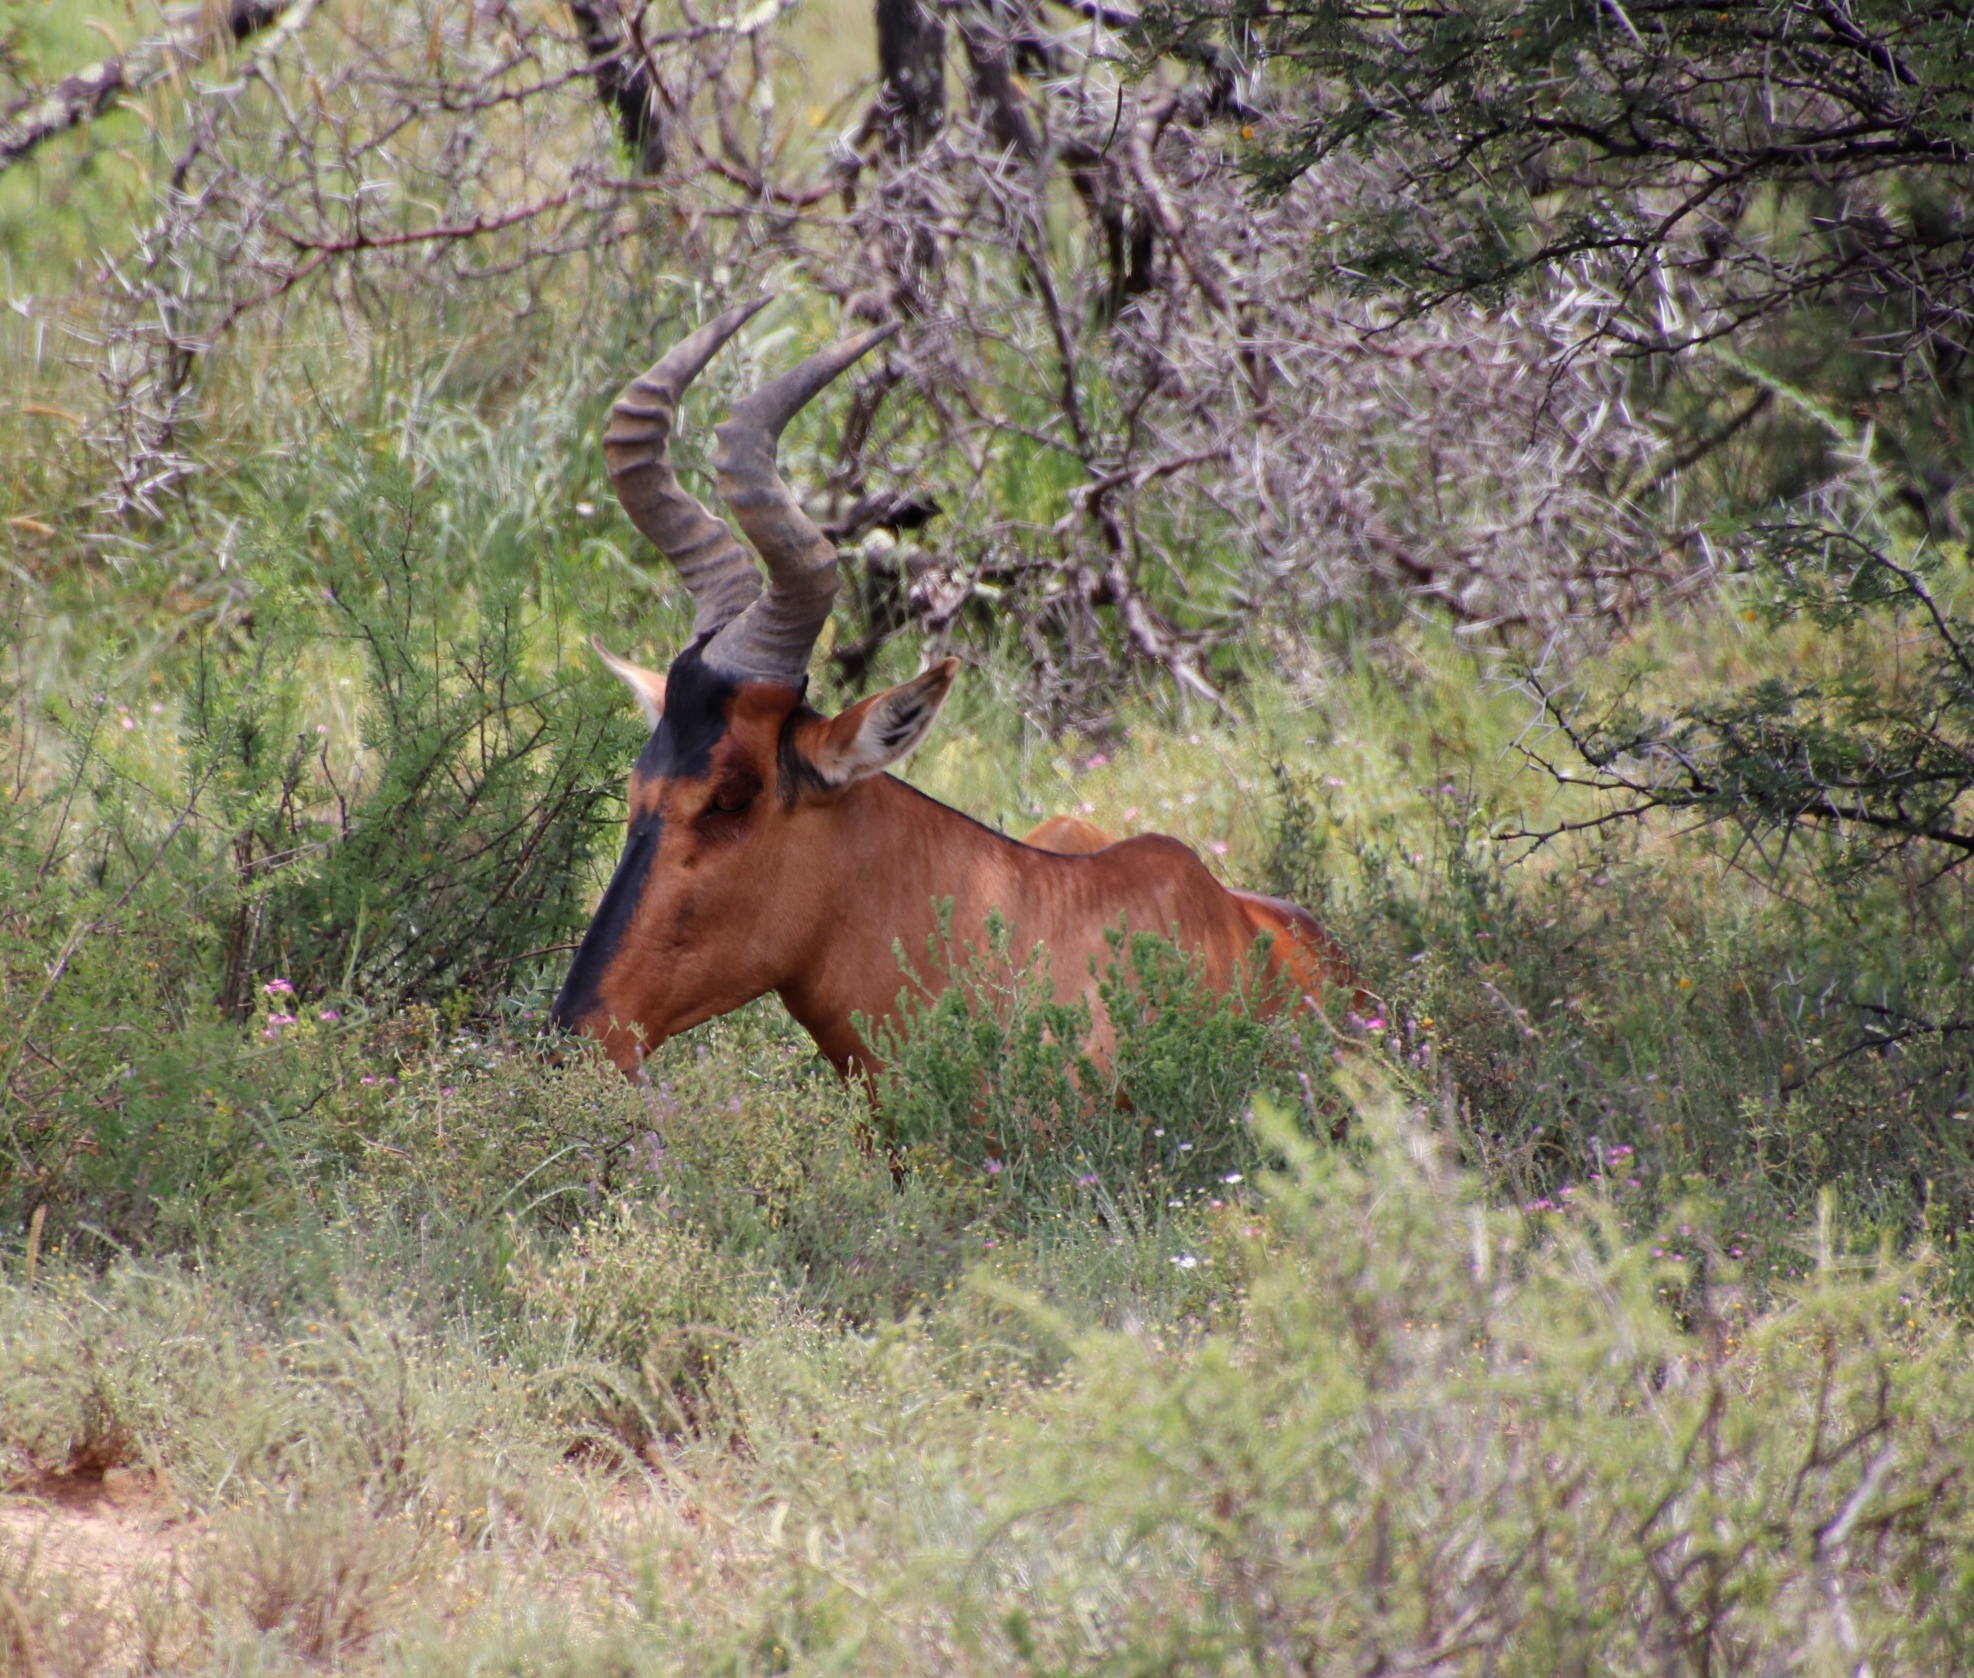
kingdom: Animalia
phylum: Chordata
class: Mammalia
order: Artiodactyla
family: Bovidae
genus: Alcelaphus
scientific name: Alcelaphus caama
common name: Red hartebeest
